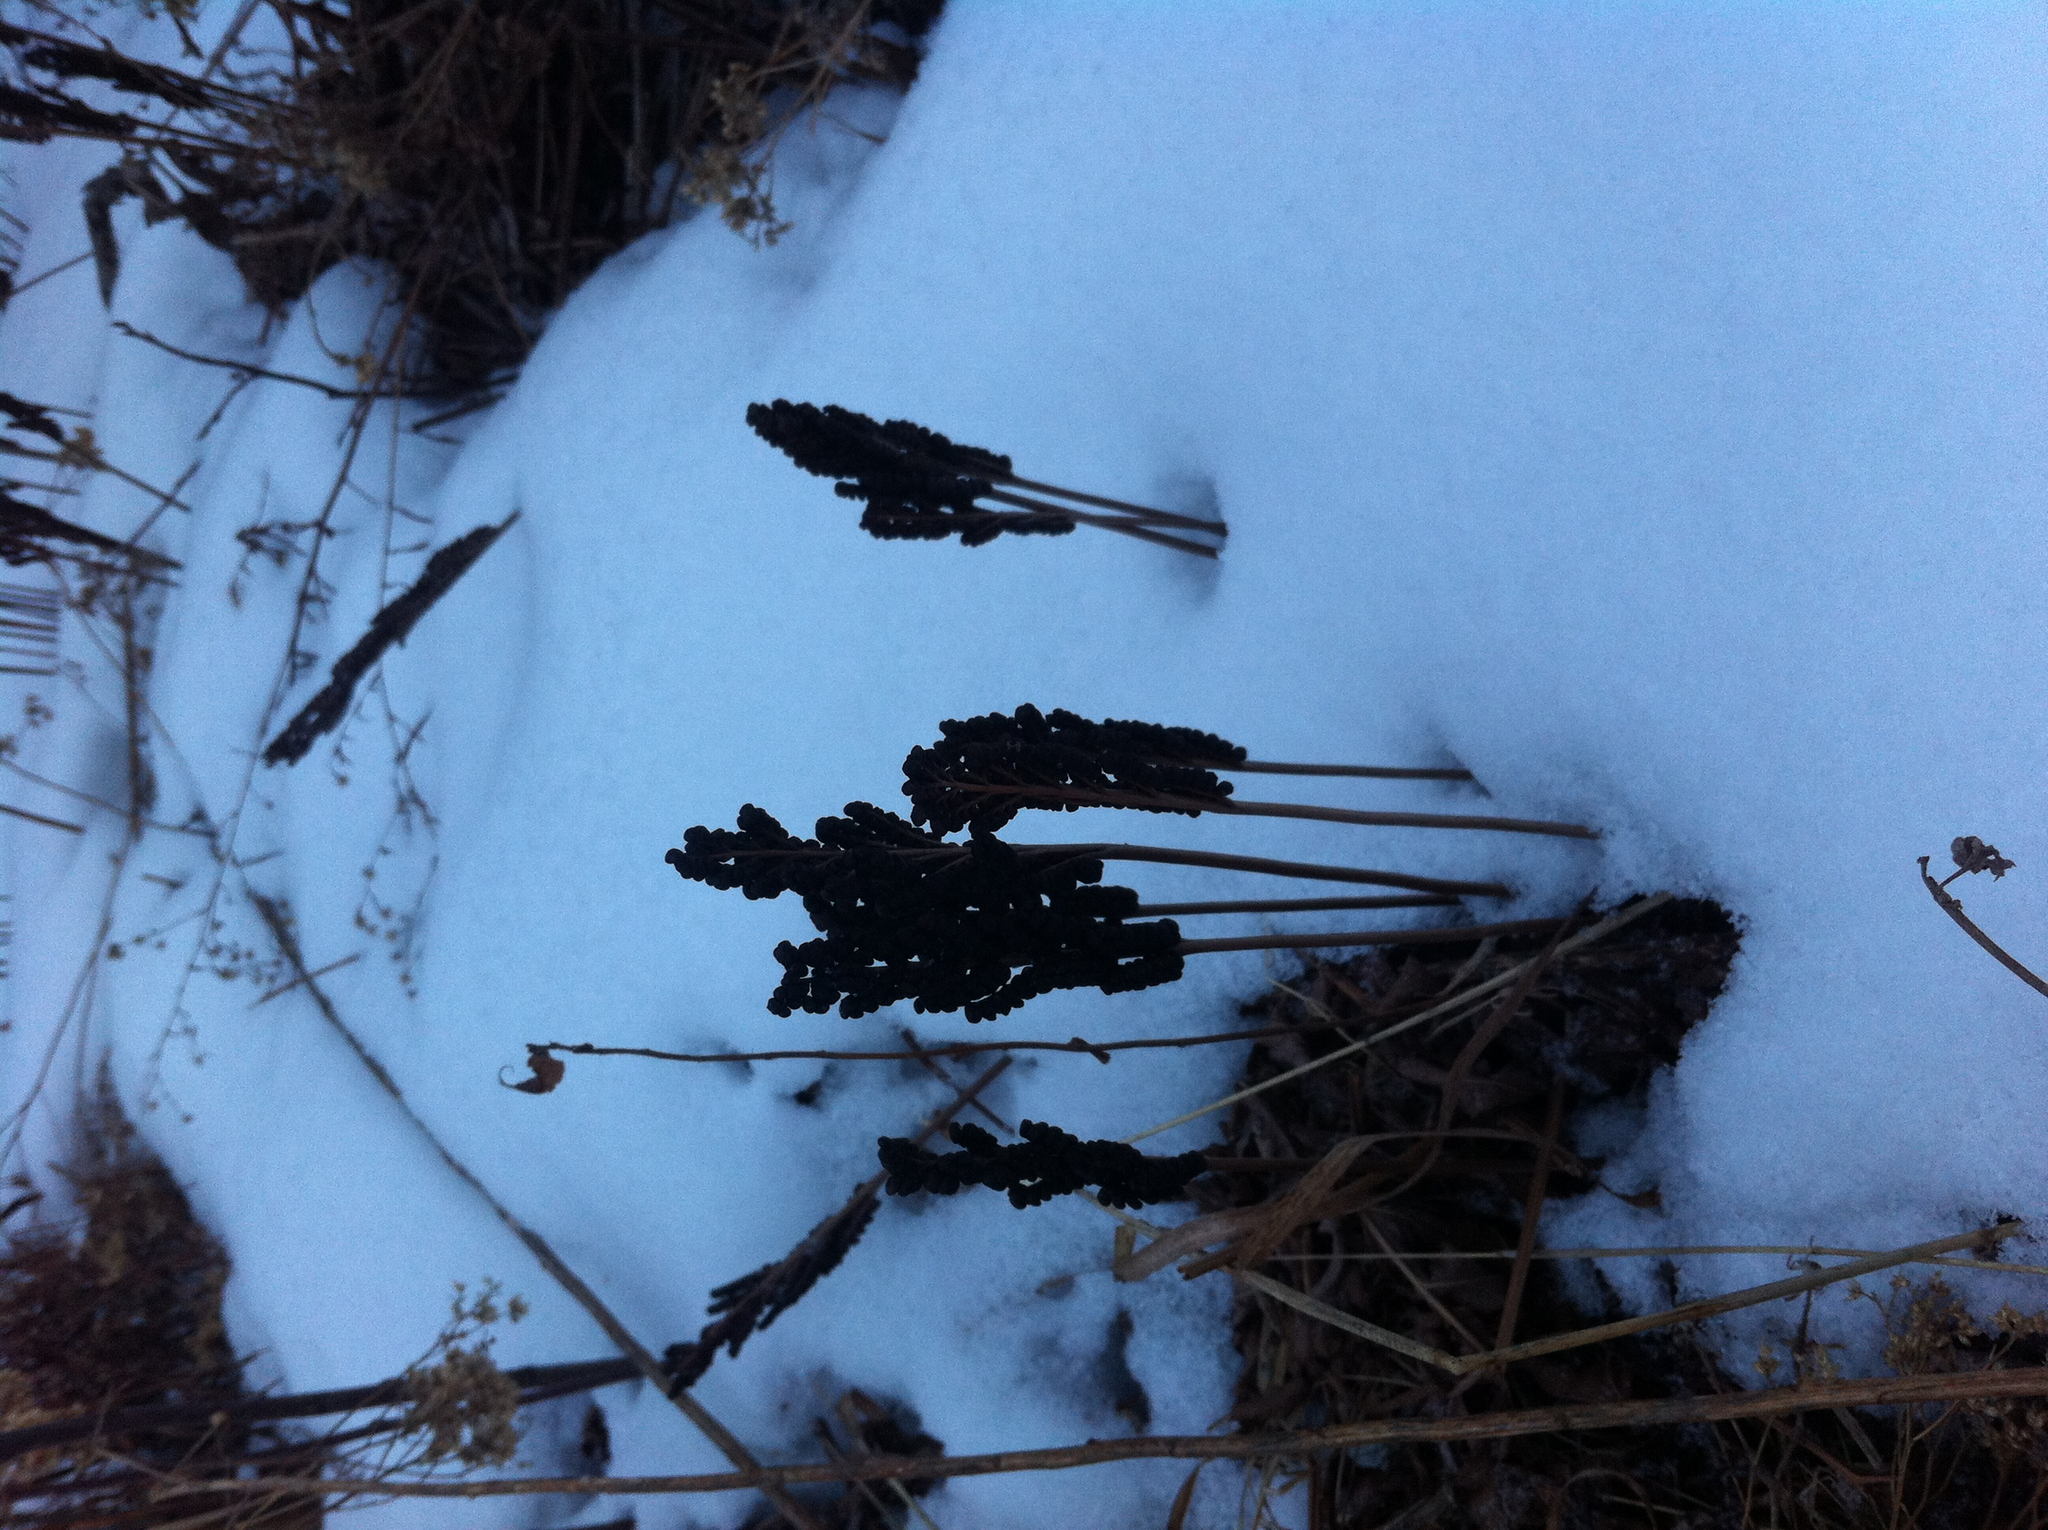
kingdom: Plantae
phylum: Tracheophyta
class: Polypodiopsida
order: Polypodiales
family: Onocleaceae
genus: Onoclea
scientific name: Onoclea sensibilis
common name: Sensitive fern
